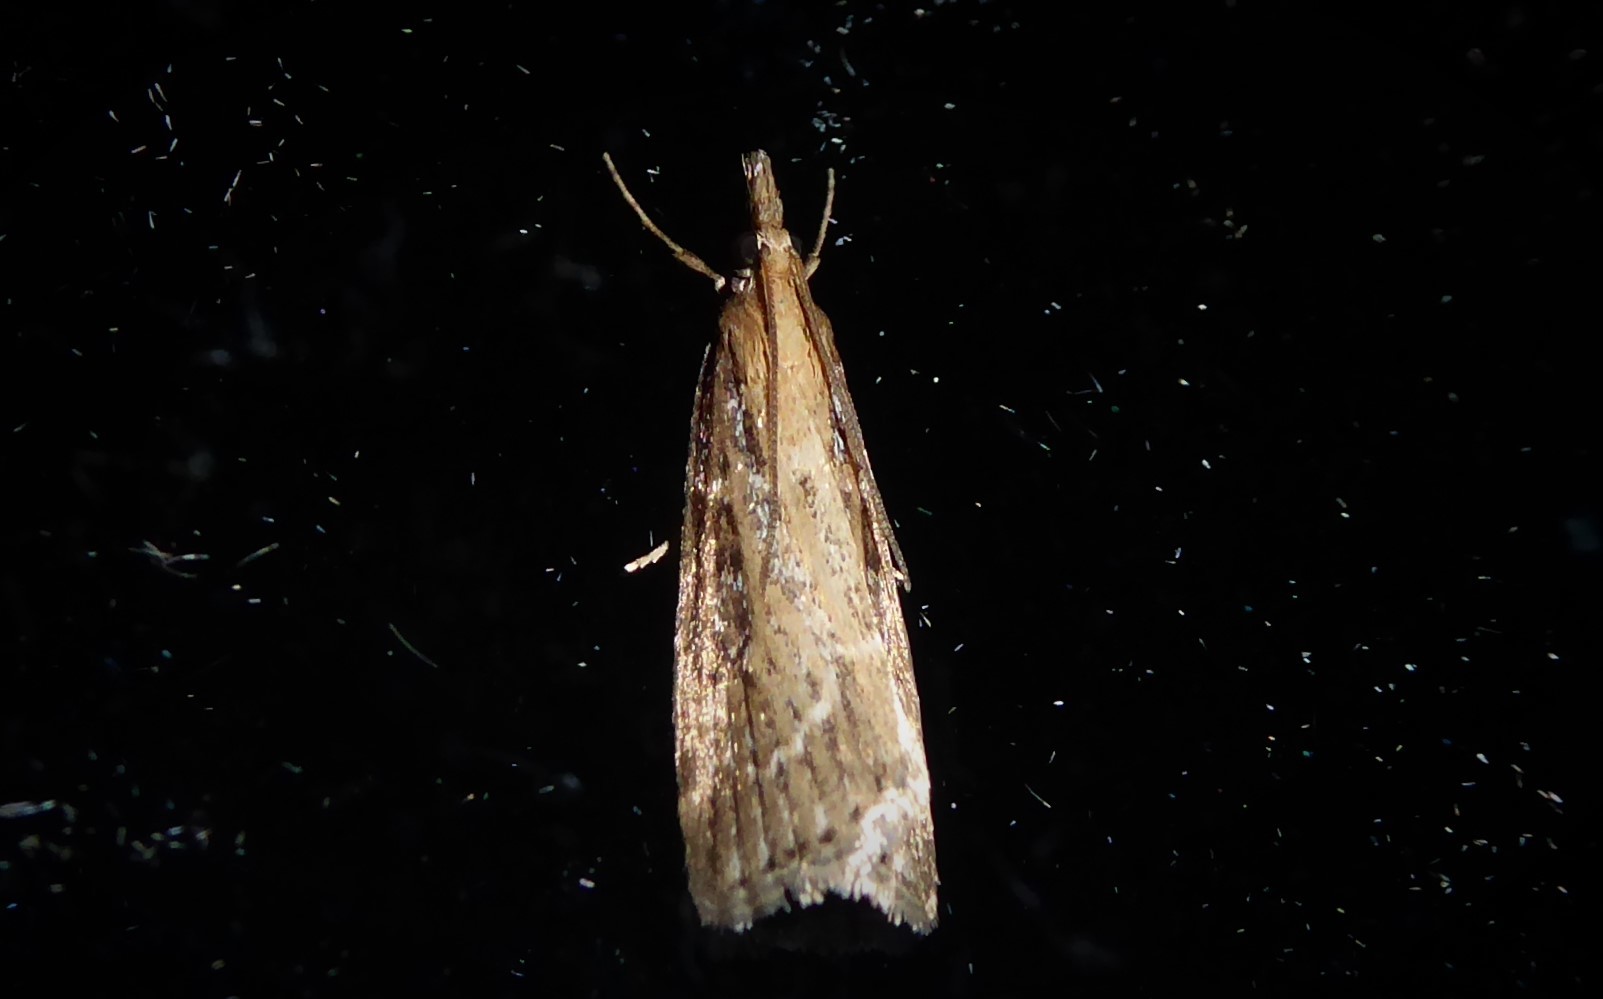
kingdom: Animalia
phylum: Arthropoda
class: Insecta
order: Lepidoptera
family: Crambidae
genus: Eudonia
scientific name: Eudonia octophora
